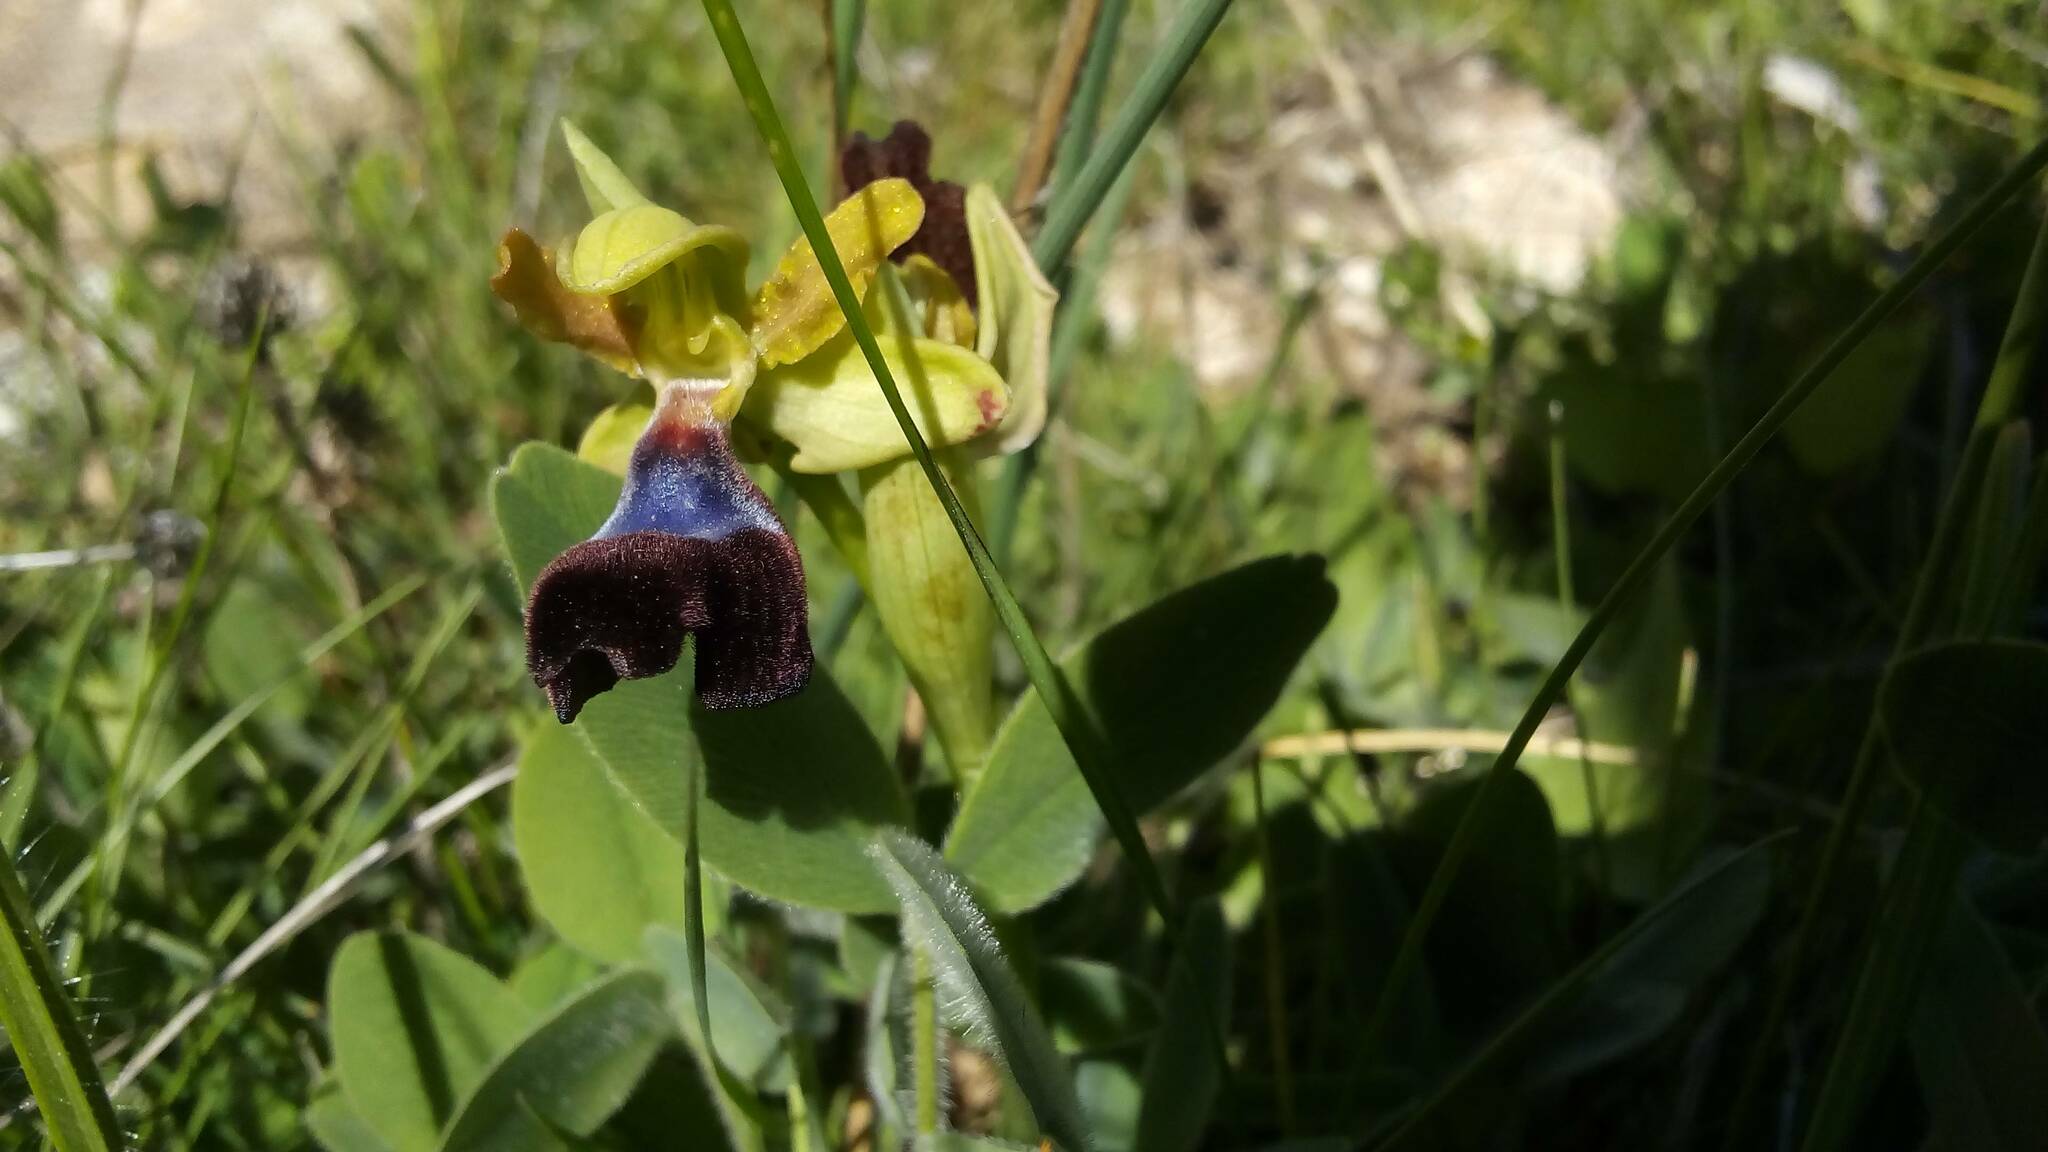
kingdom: Plantae
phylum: Tracheophyta
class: Liliopsida
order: Asparagales
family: Orchidaceae
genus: Ophrys
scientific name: Ophrys atlantica
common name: Atlantic ophrys
